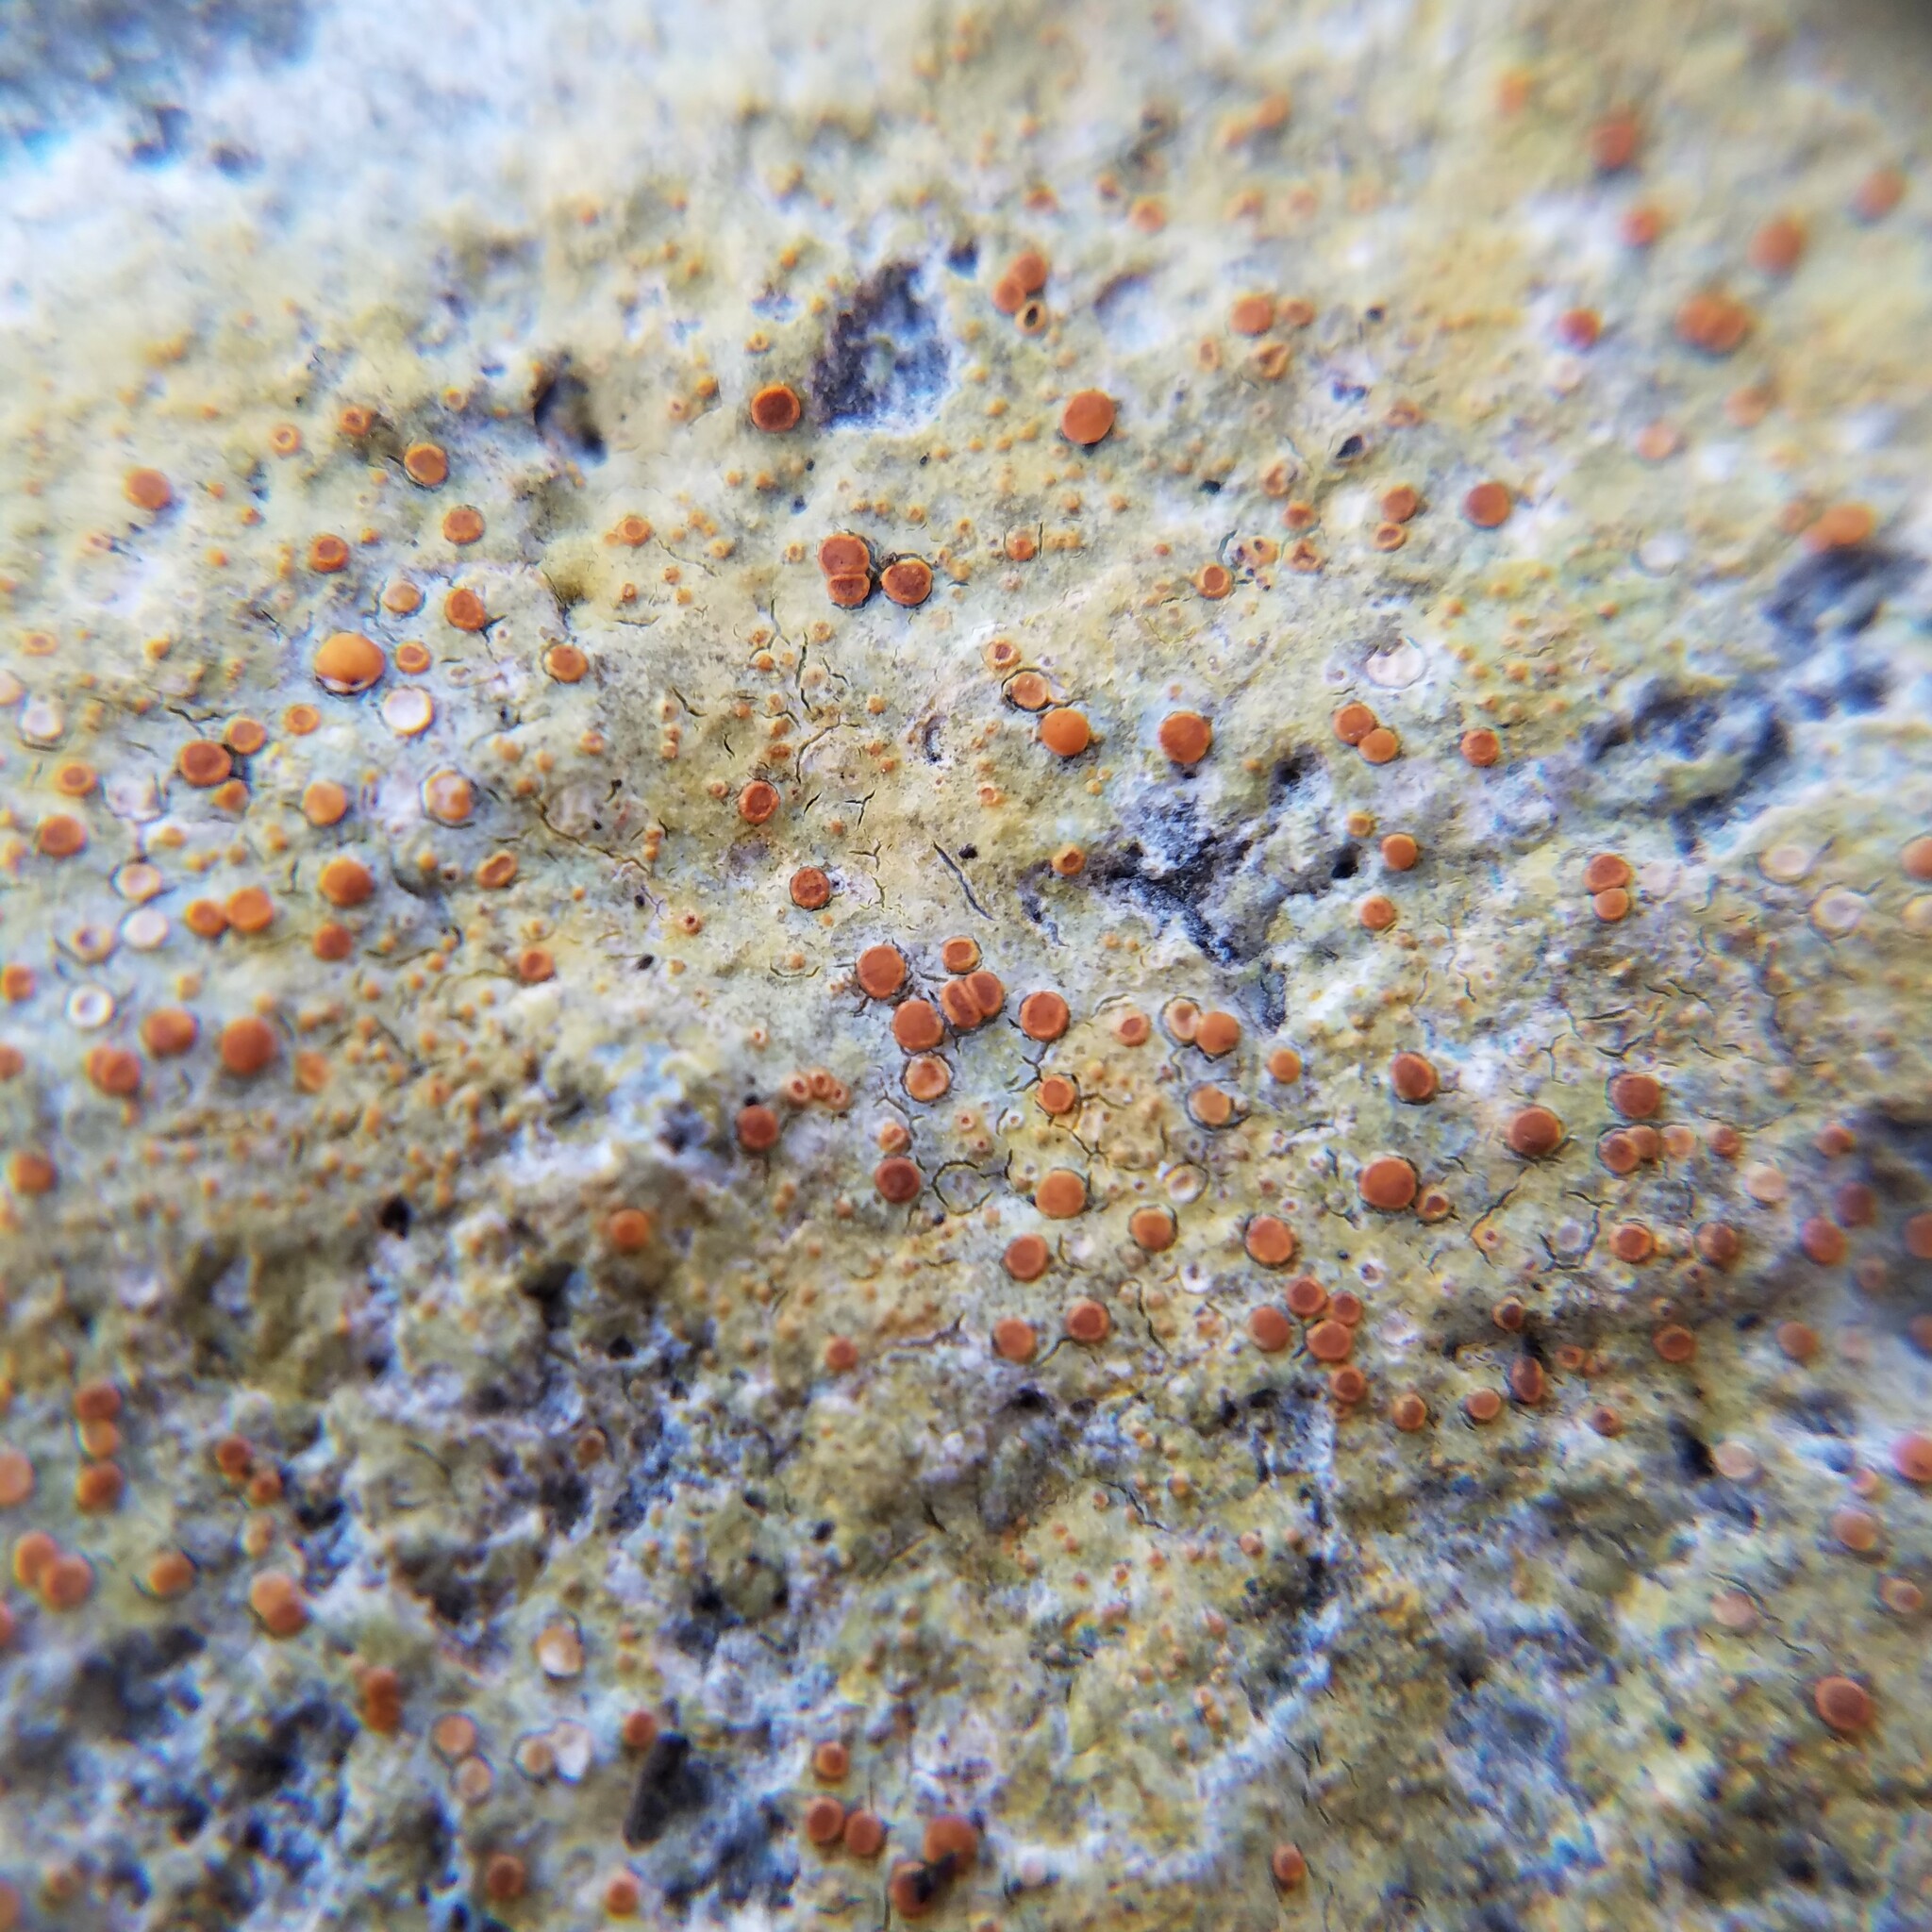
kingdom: Fungi
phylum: Ascomycota
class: Lecanoromycetes
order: Teloschistales
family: Teloschistaceae
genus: Gyalolechia
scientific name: Gyalolechia flavovirescens
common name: Sulphur firedot
